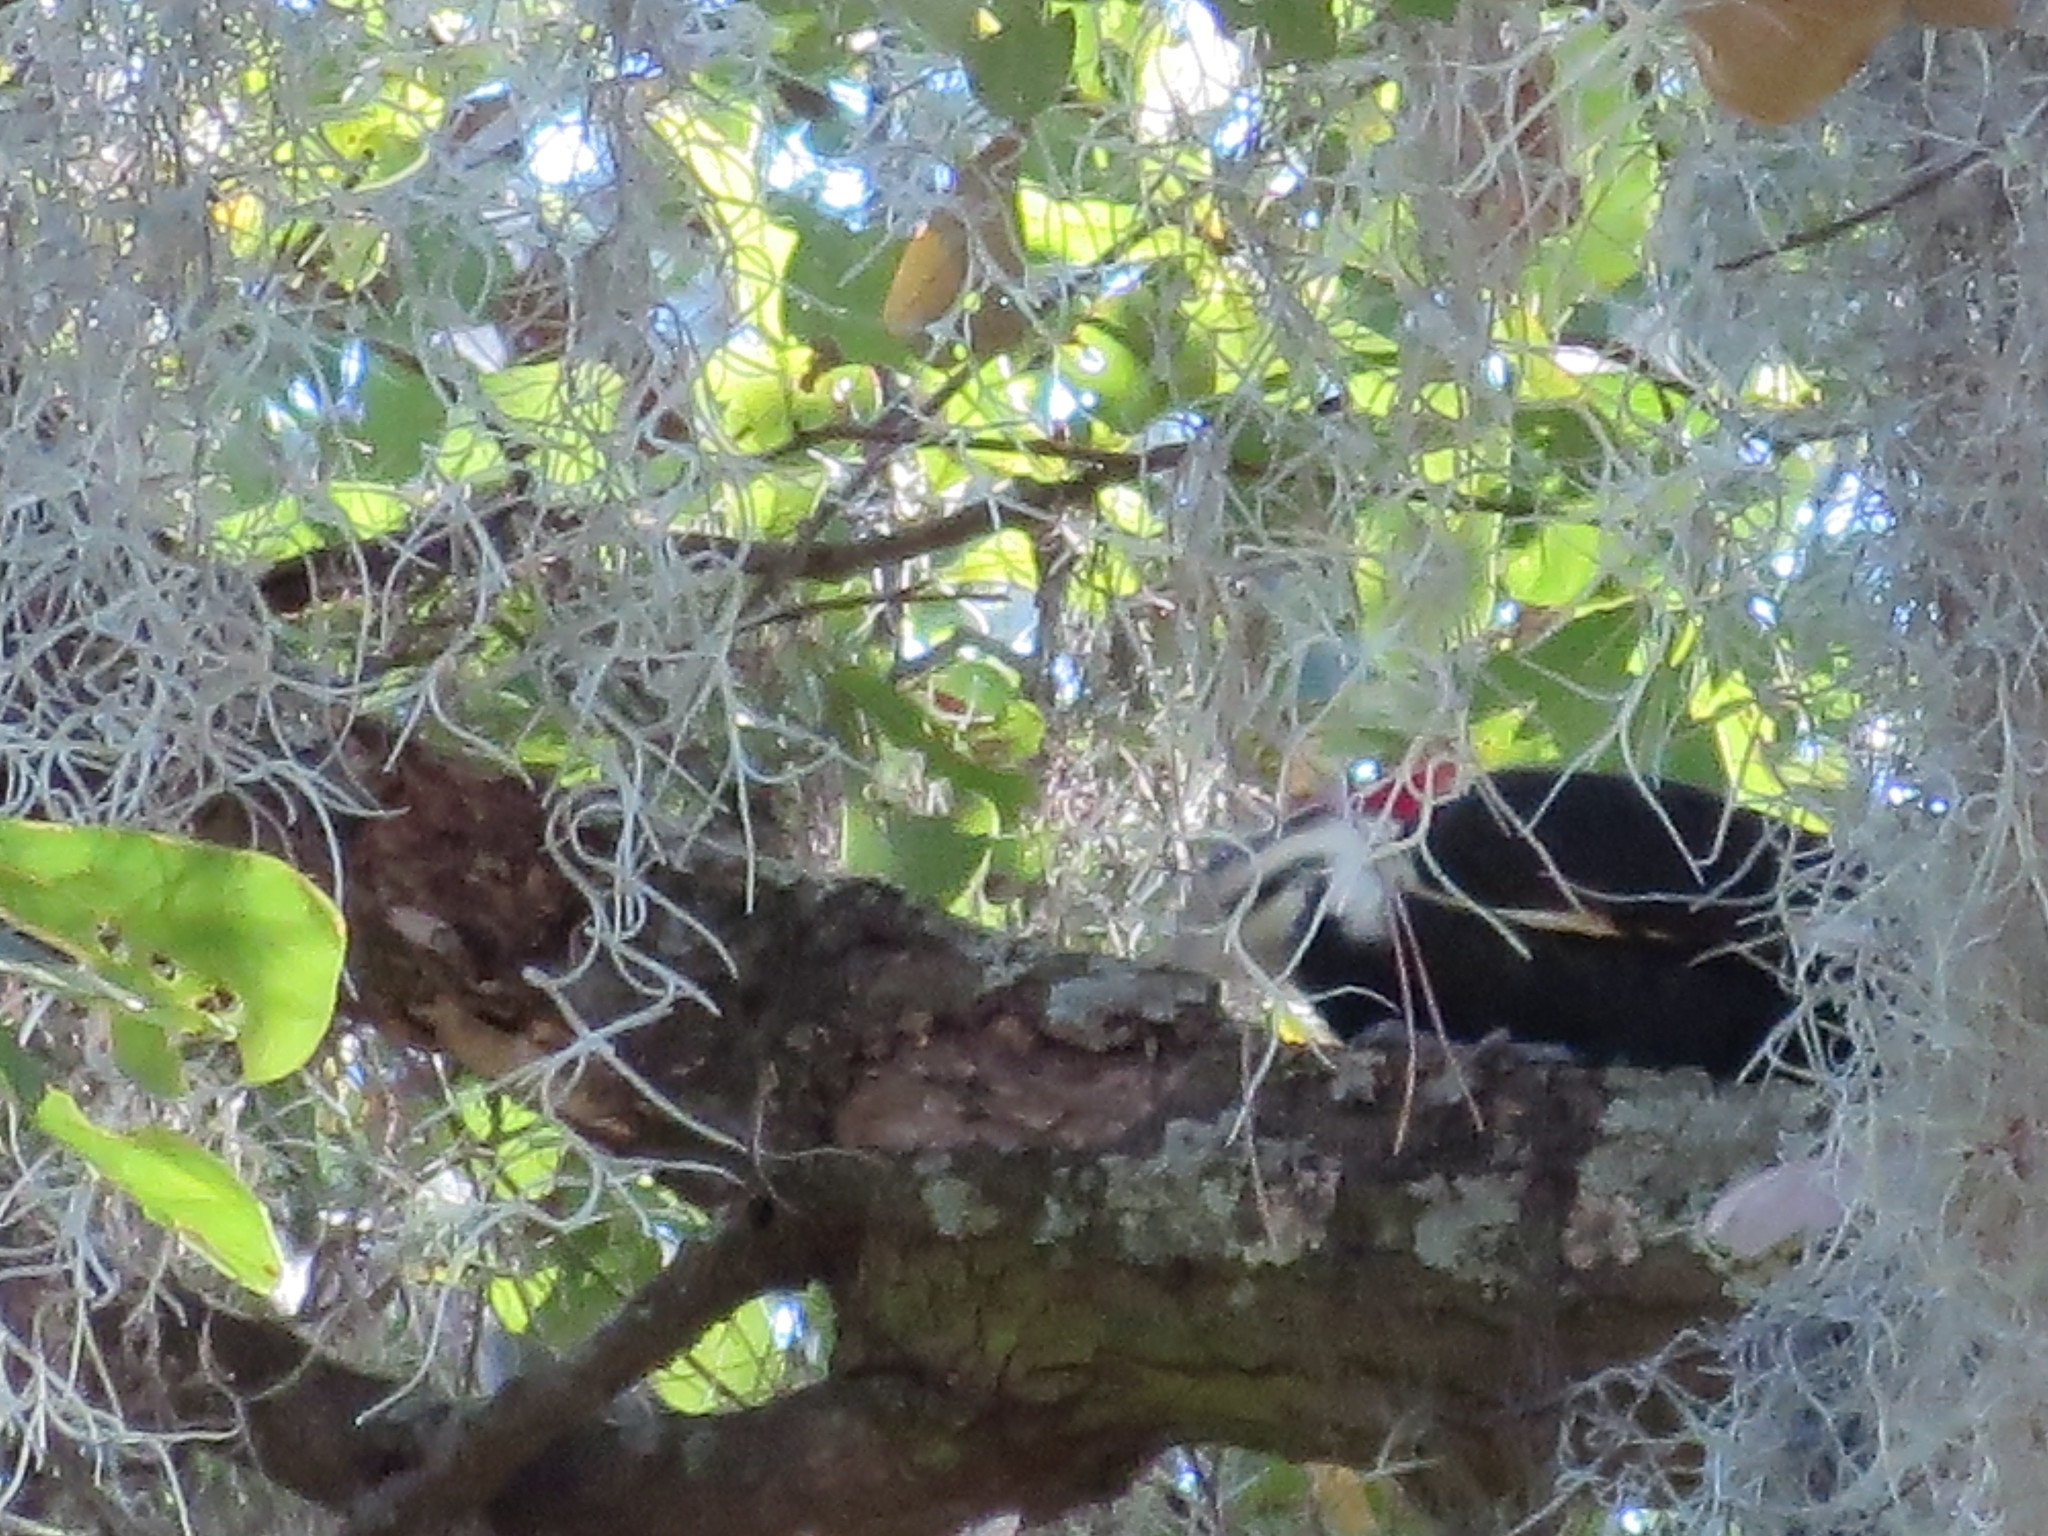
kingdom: Animalia
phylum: Chordata
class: Aves
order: Piciformes
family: Picidae
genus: Dryocopus
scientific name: Dryocopus pileatus
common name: Pileated woodpecker
